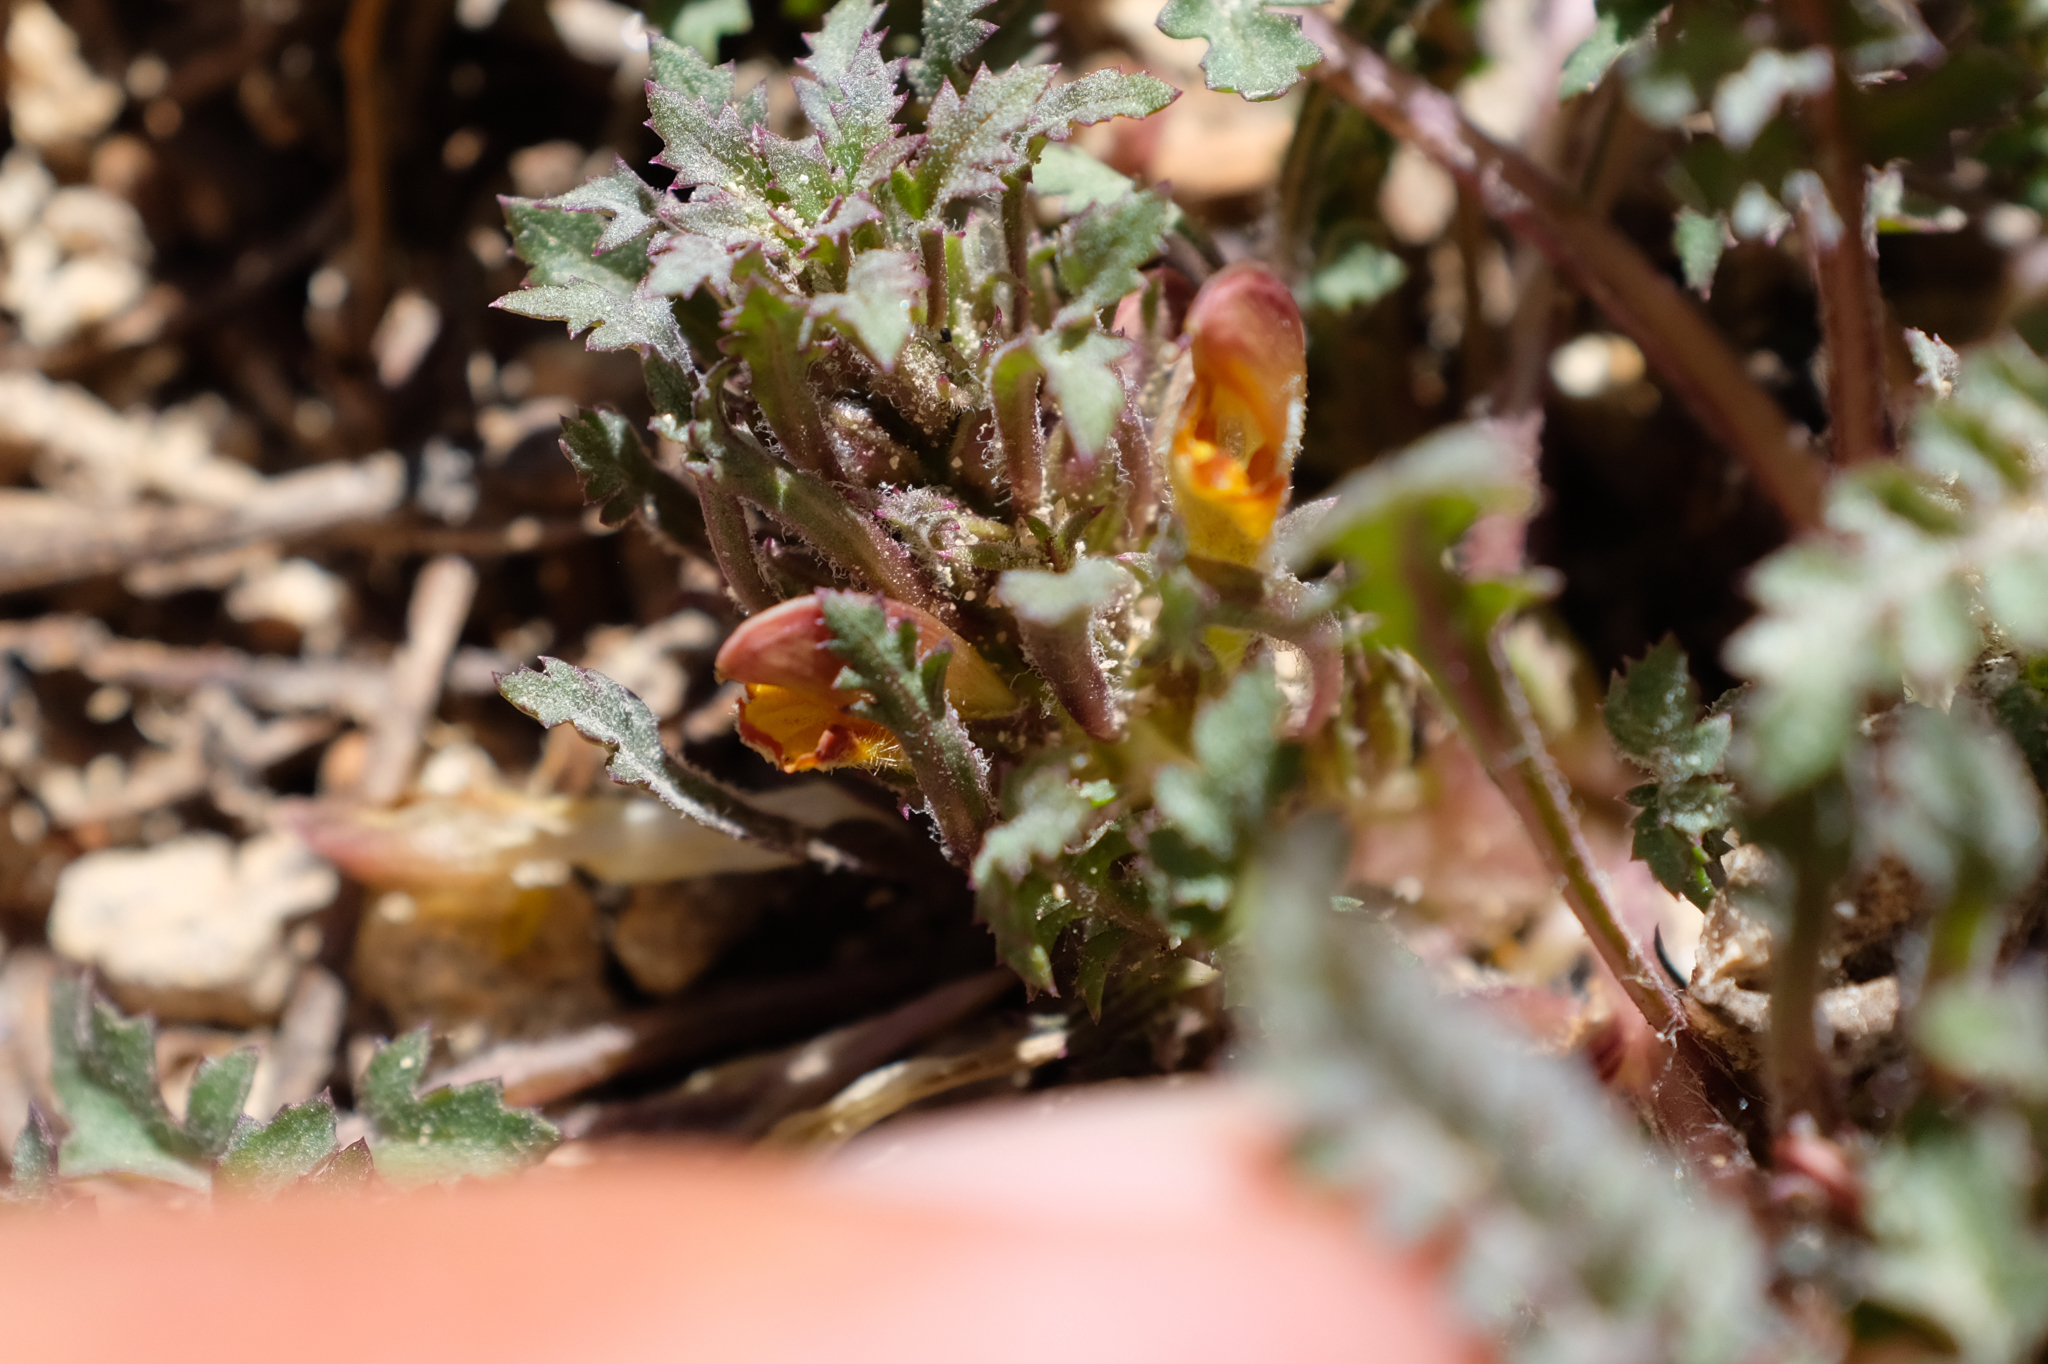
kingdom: Plantae
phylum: Tracheophyta
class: Magnoliopsida
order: Lamiales
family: Orobanchaceae
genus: Pedicularis
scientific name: Pedicularis semibarbata
